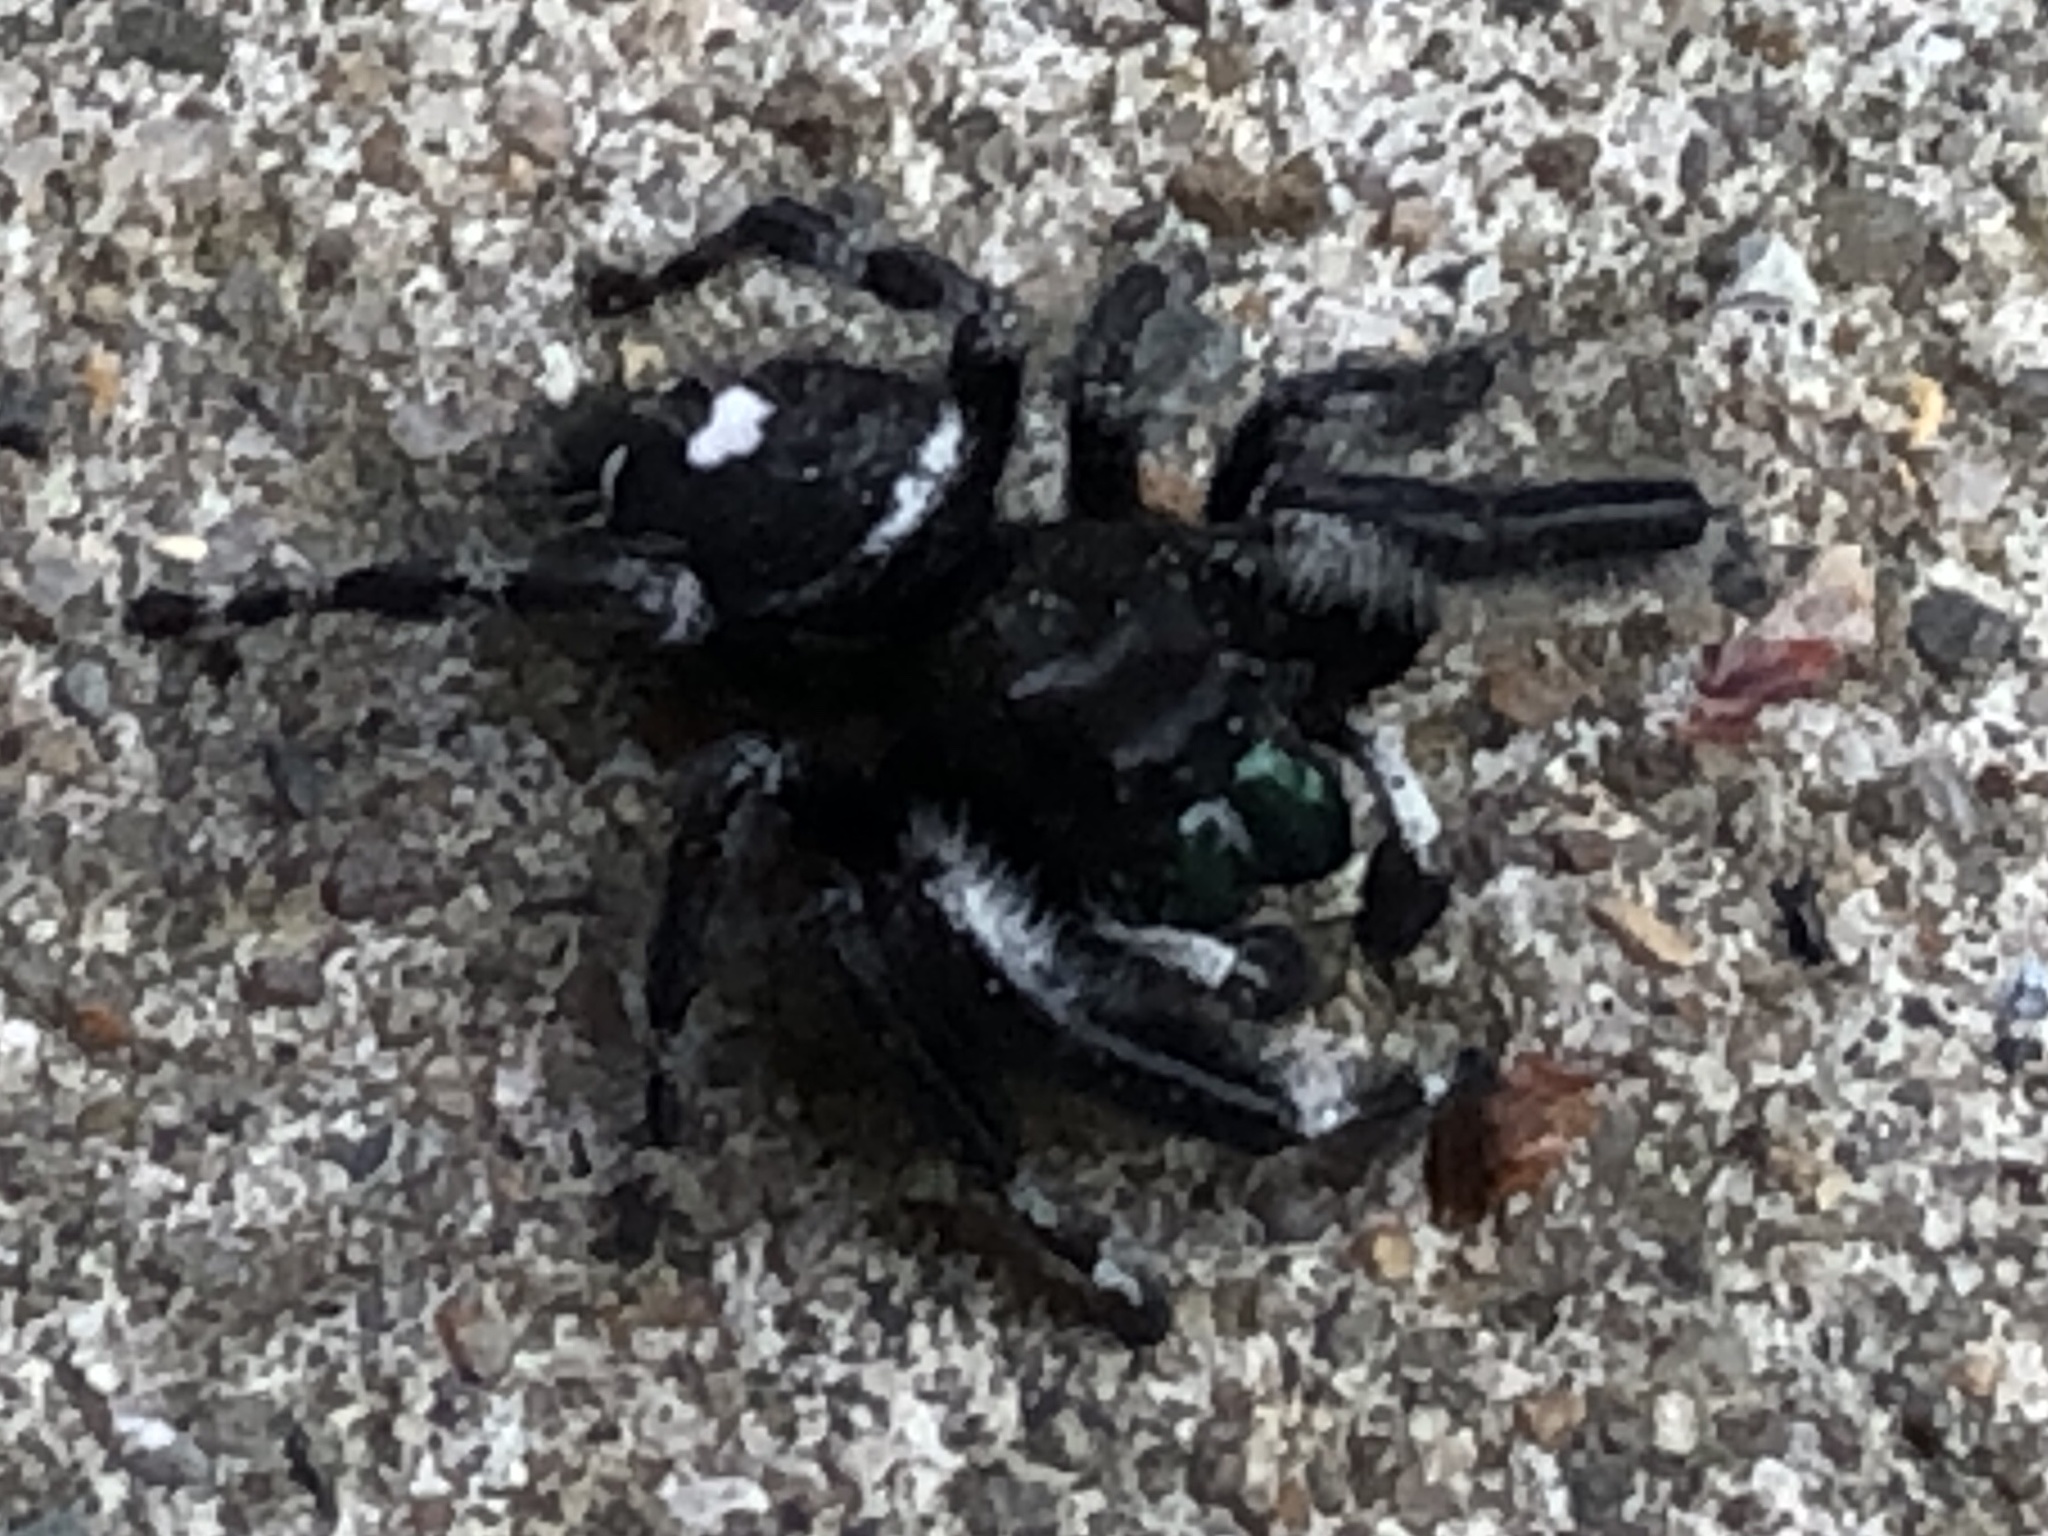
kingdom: Animalia
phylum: Arthropoda
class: Arachnida
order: Araneae
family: Salticidae
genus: Phidippus
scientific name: Phidippus audax
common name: Bold jumper
